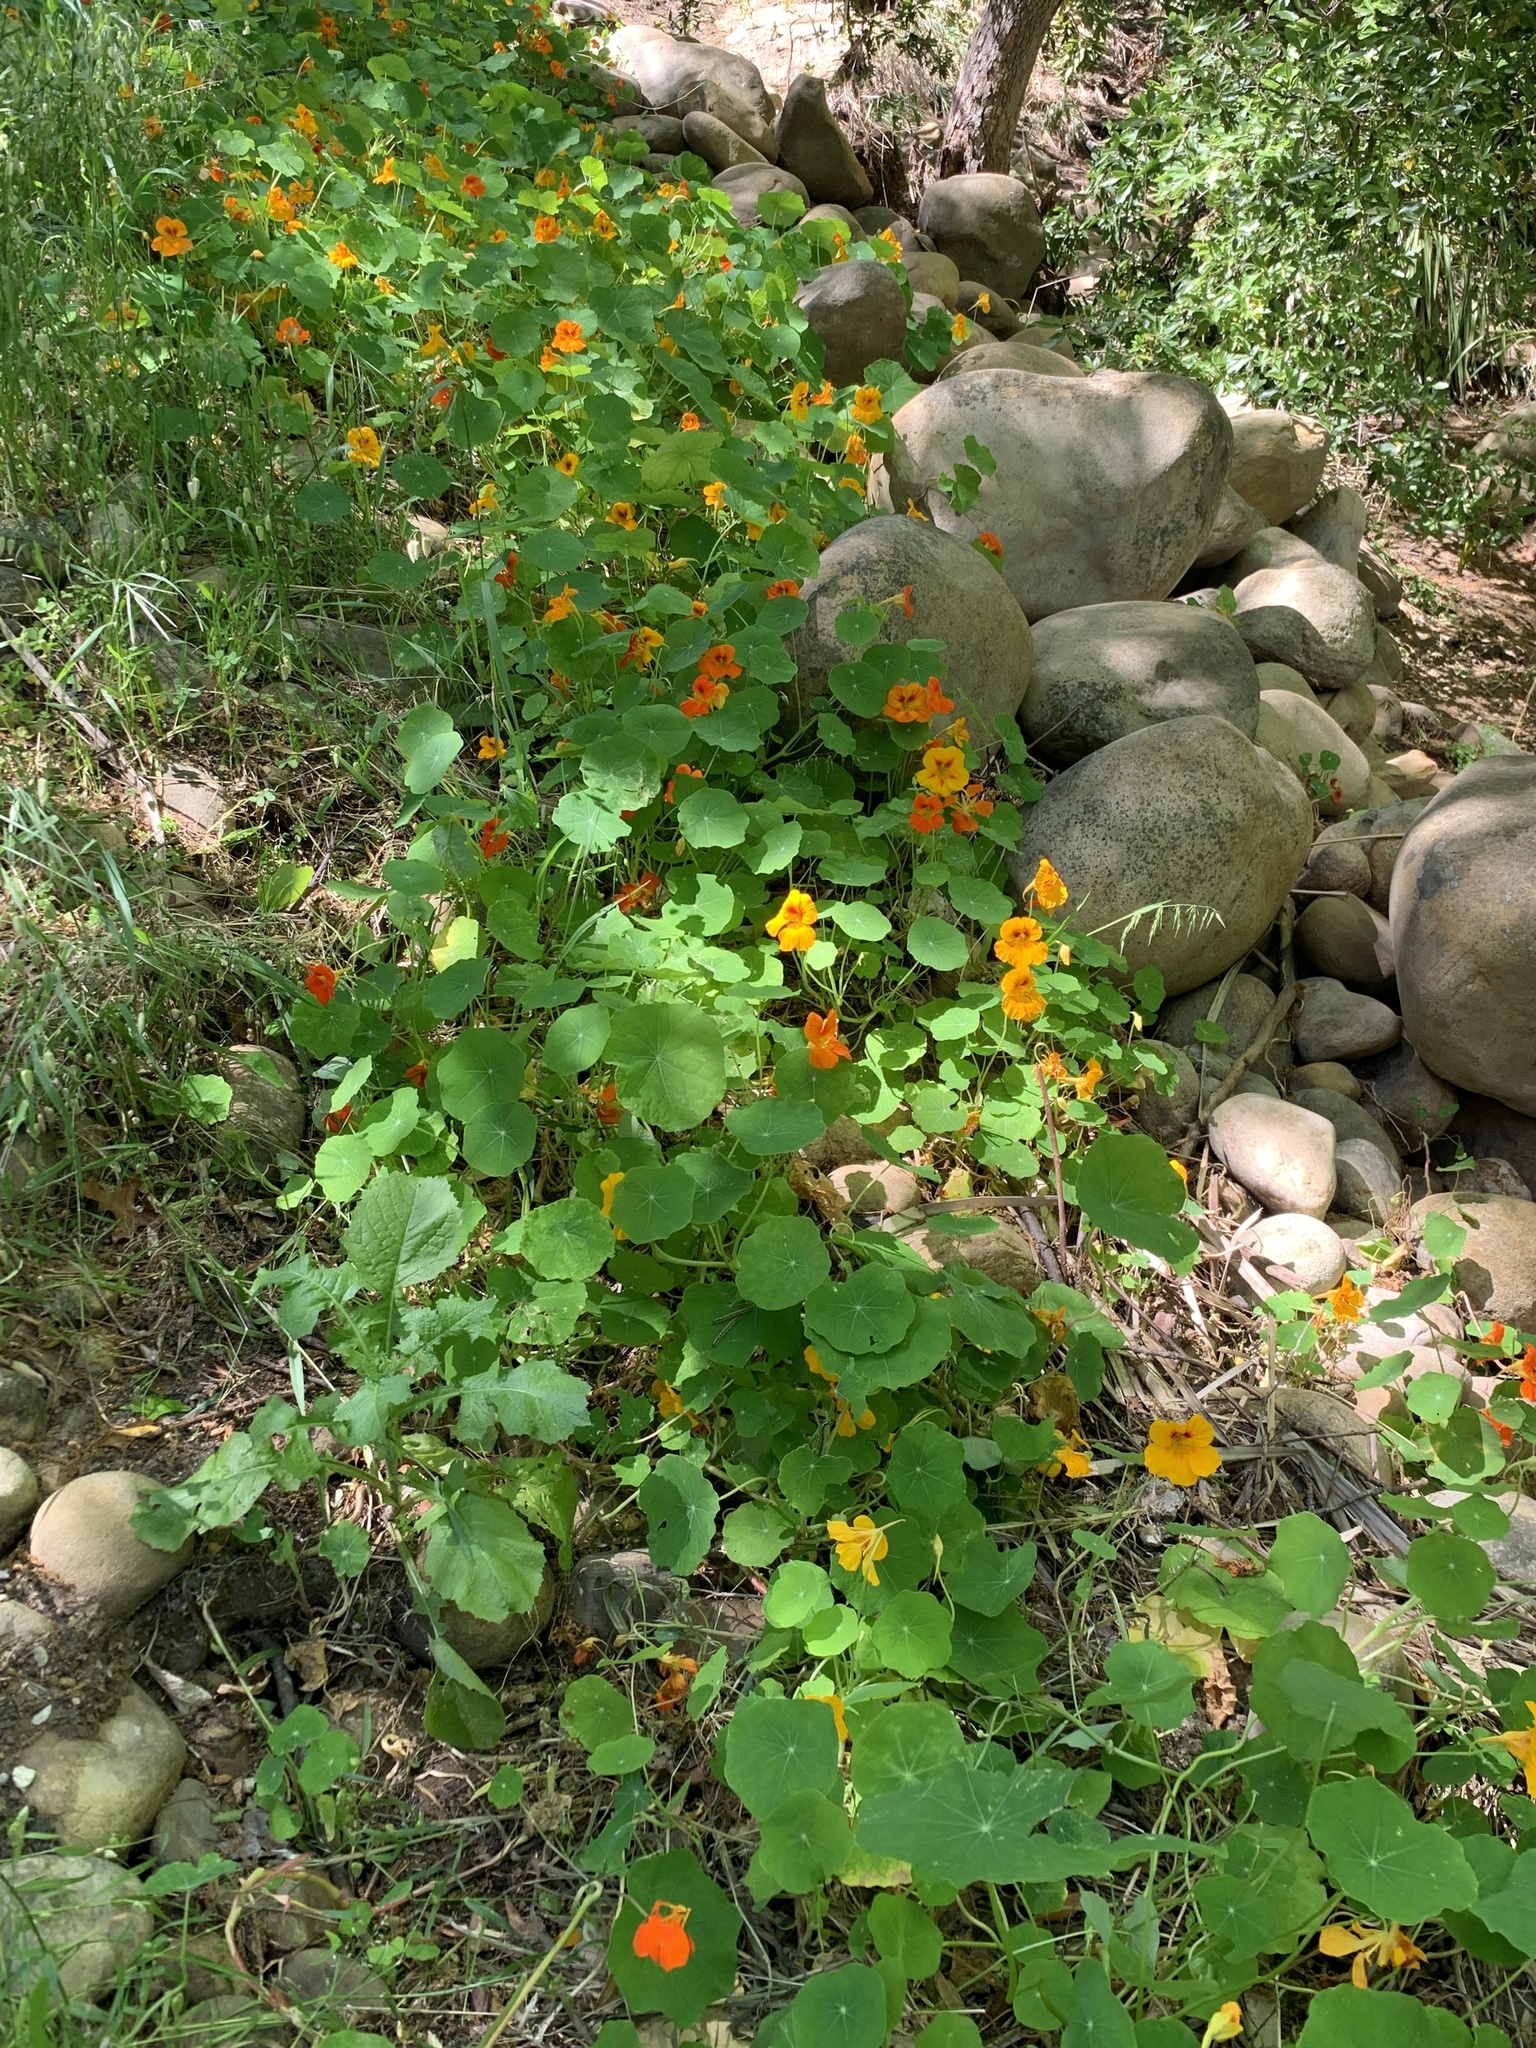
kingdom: Plantae
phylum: Tracheophyta
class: Magnoliopsida
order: Brassicales
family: Tropaeolaceae
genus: Tropaeolum
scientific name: Tropaeolum majus
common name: Nasturtium
